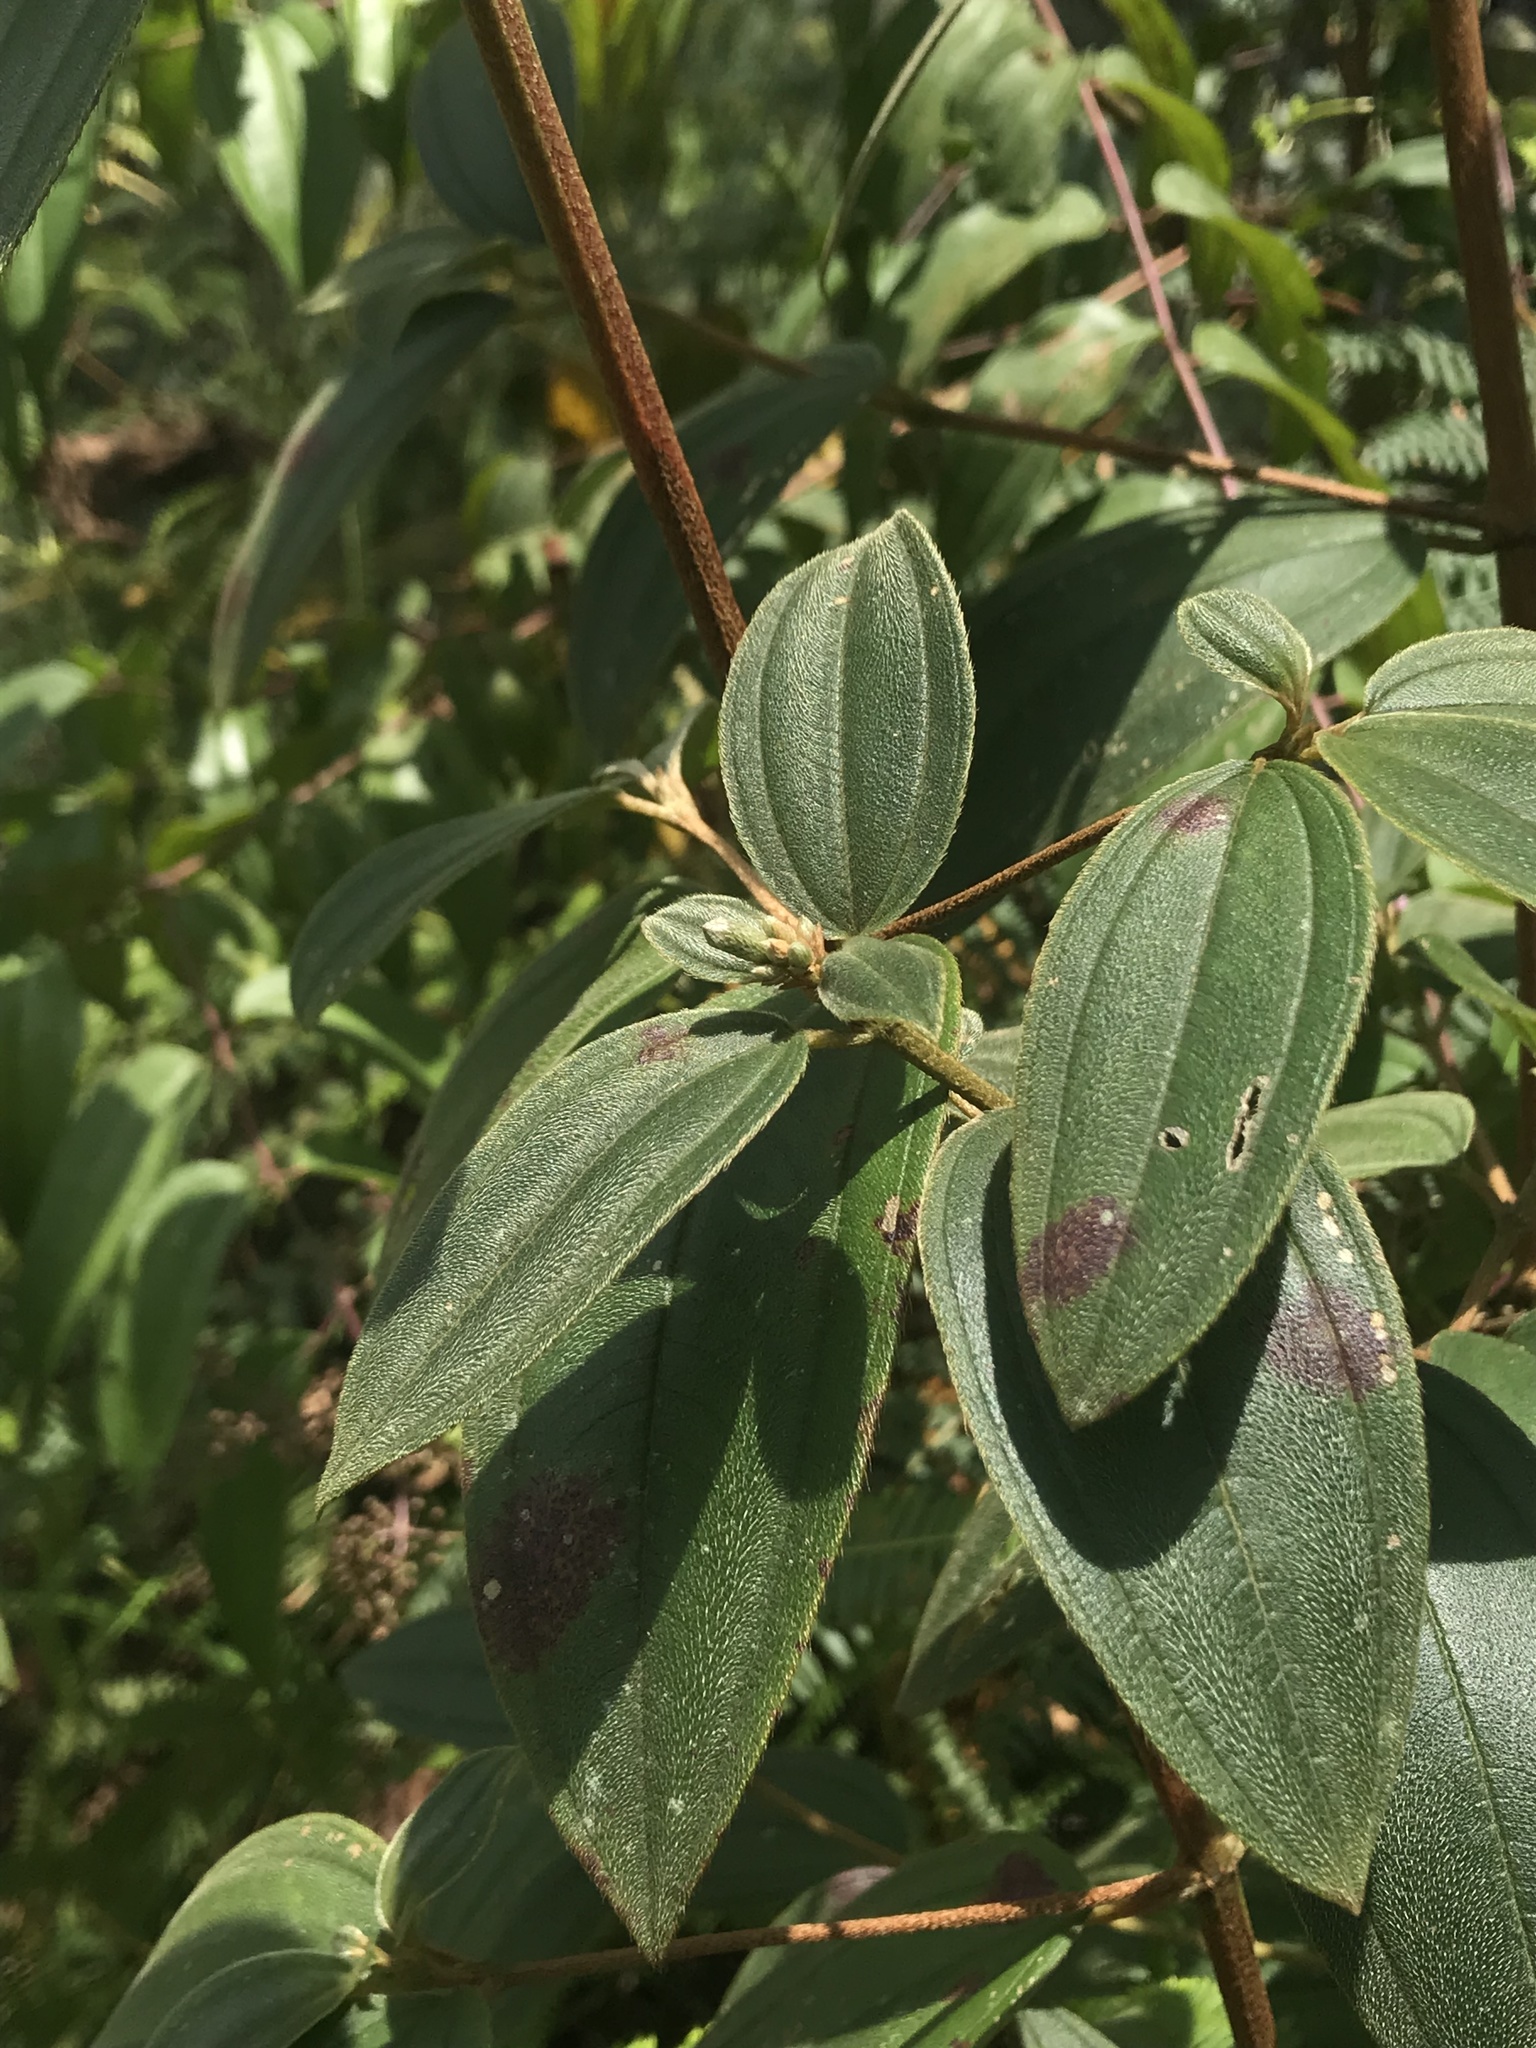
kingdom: Plantae
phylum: Tracheophyta
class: Magnoliopsida
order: Myrtales
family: Melastomataceae
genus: Pleroma
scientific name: Pleroma bipenicillatum
